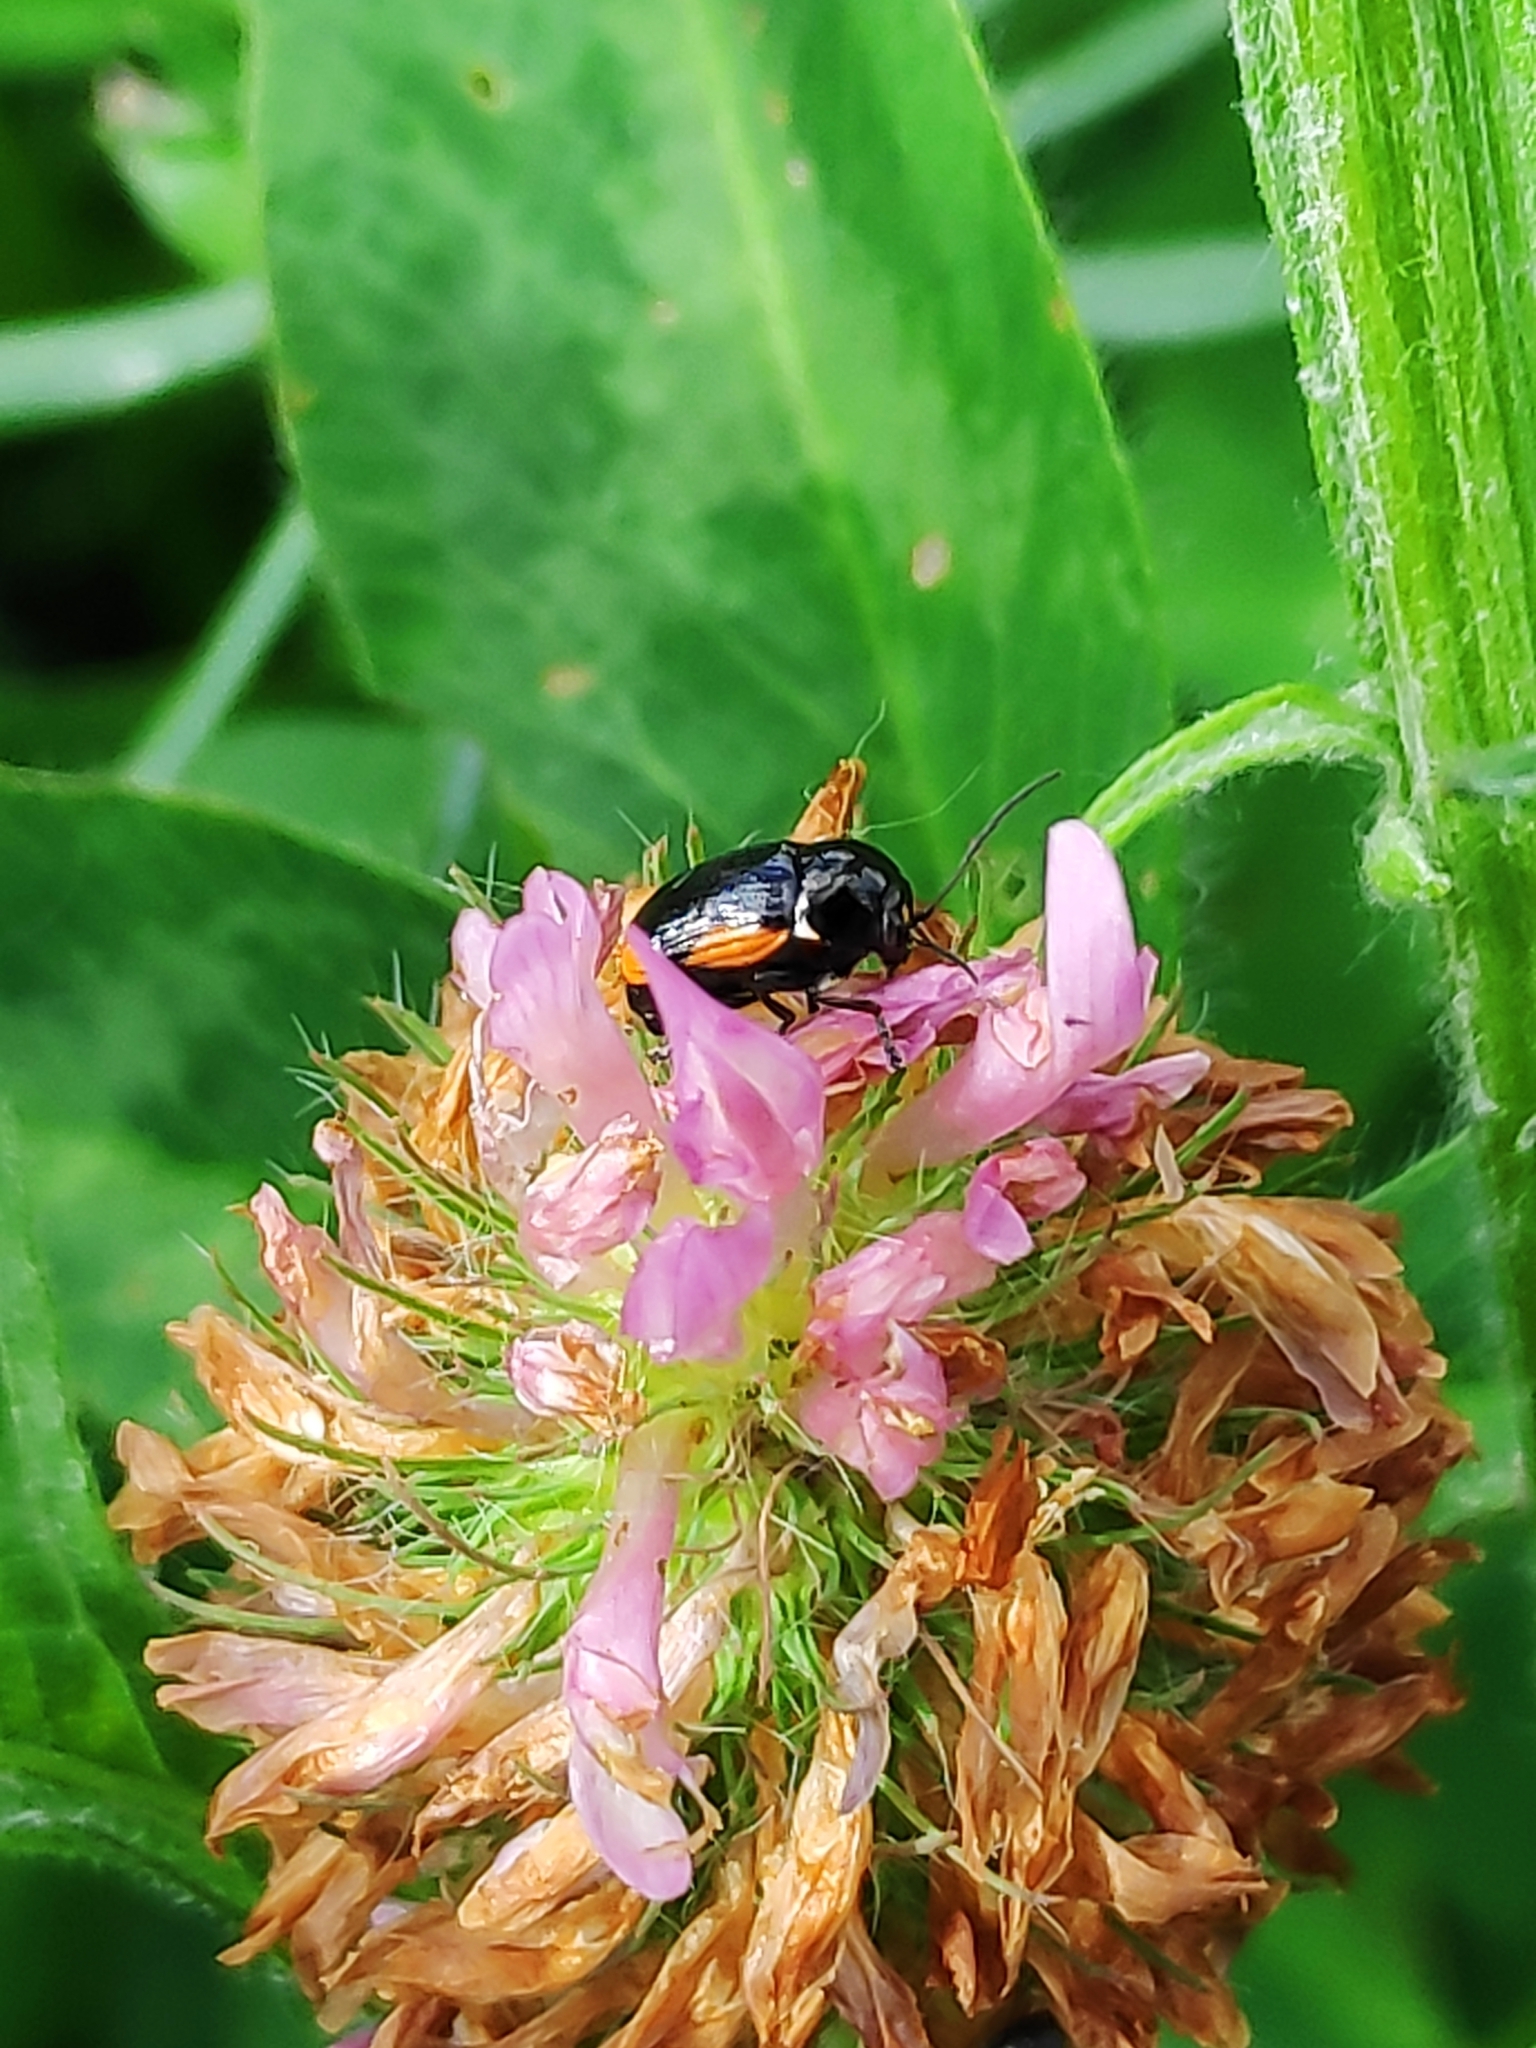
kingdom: Animalia
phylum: Arthropoda
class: Insecta
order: Coleoptera
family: Chrysomelidae
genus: Cryptocephalus
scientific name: Cryptocephalus moraei
